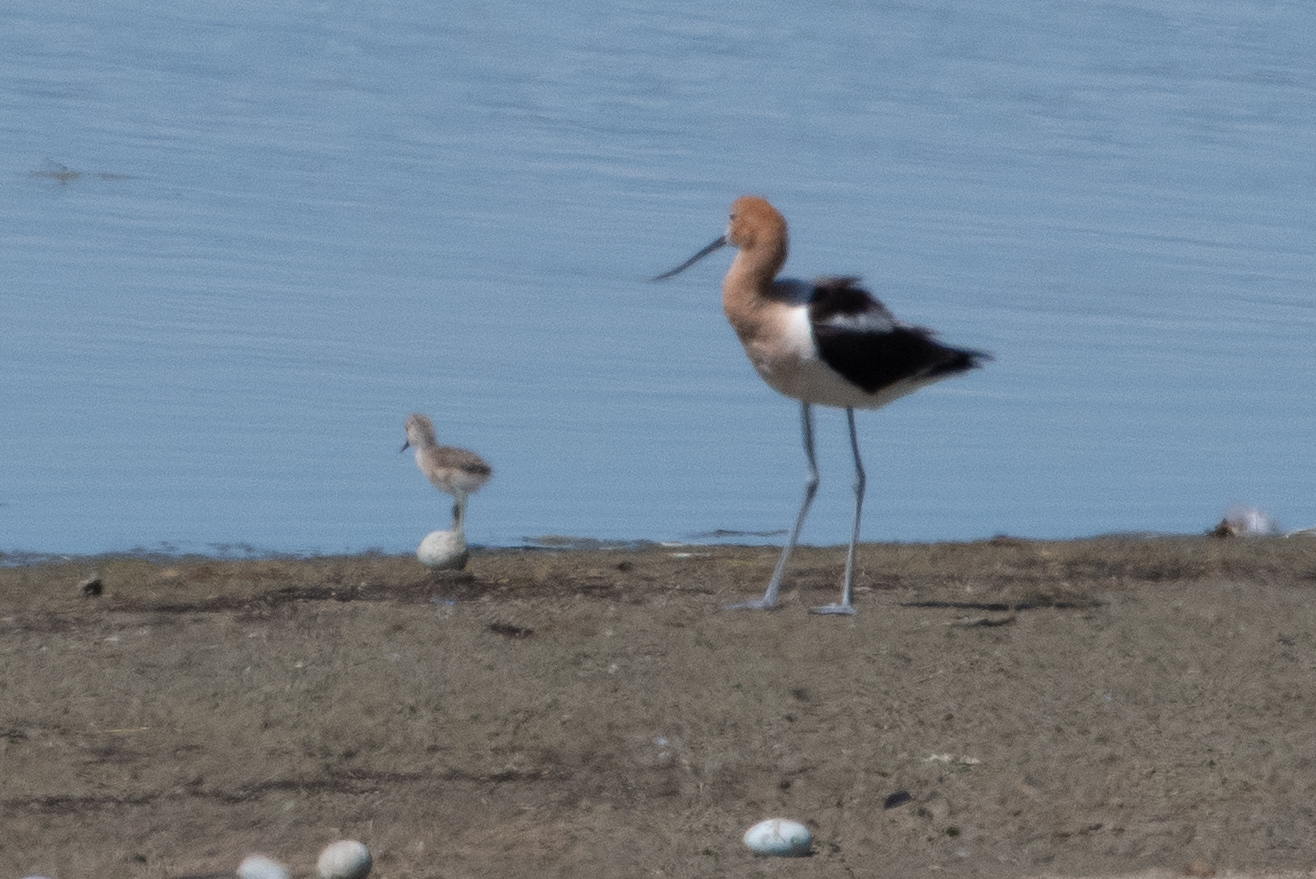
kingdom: Animalia
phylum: Chordata
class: Aves
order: Charadriiformes
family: Recurvirostridae
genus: Recurvirostra
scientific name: Recurvirostra americana
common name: American avocet
